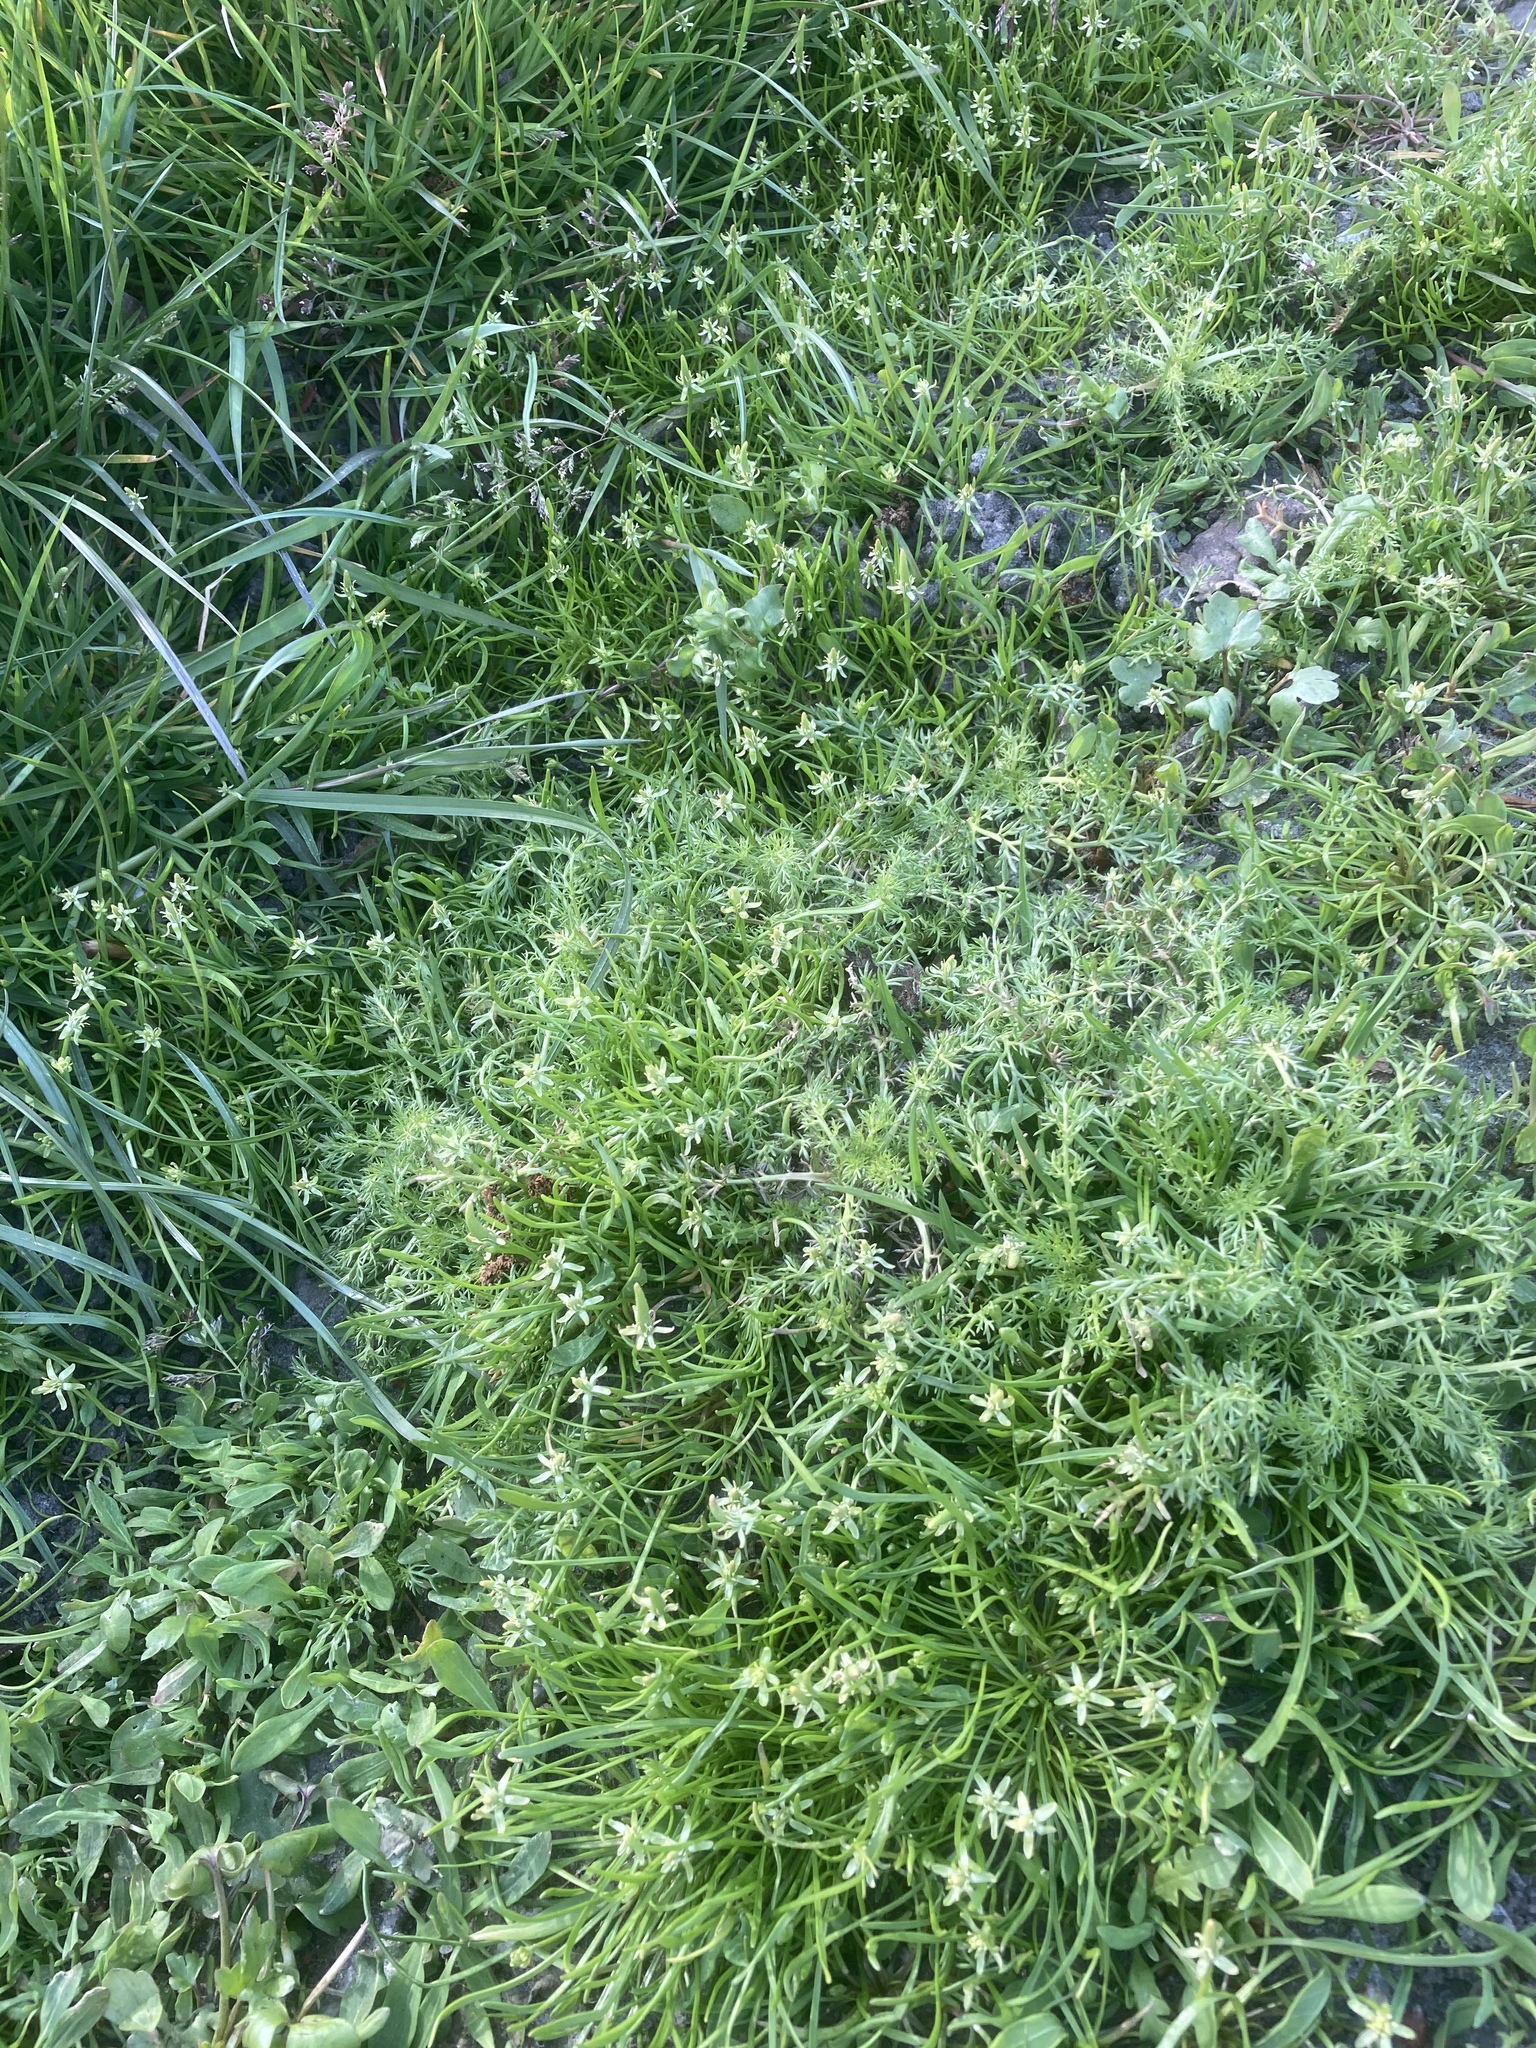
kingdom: Plantae
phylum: Tracheophyta
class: Magnoliopsida
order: Ranunculales
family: Ranunculaceae
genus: Myosurus
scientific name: Myosurus minimus
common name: Mousetail
